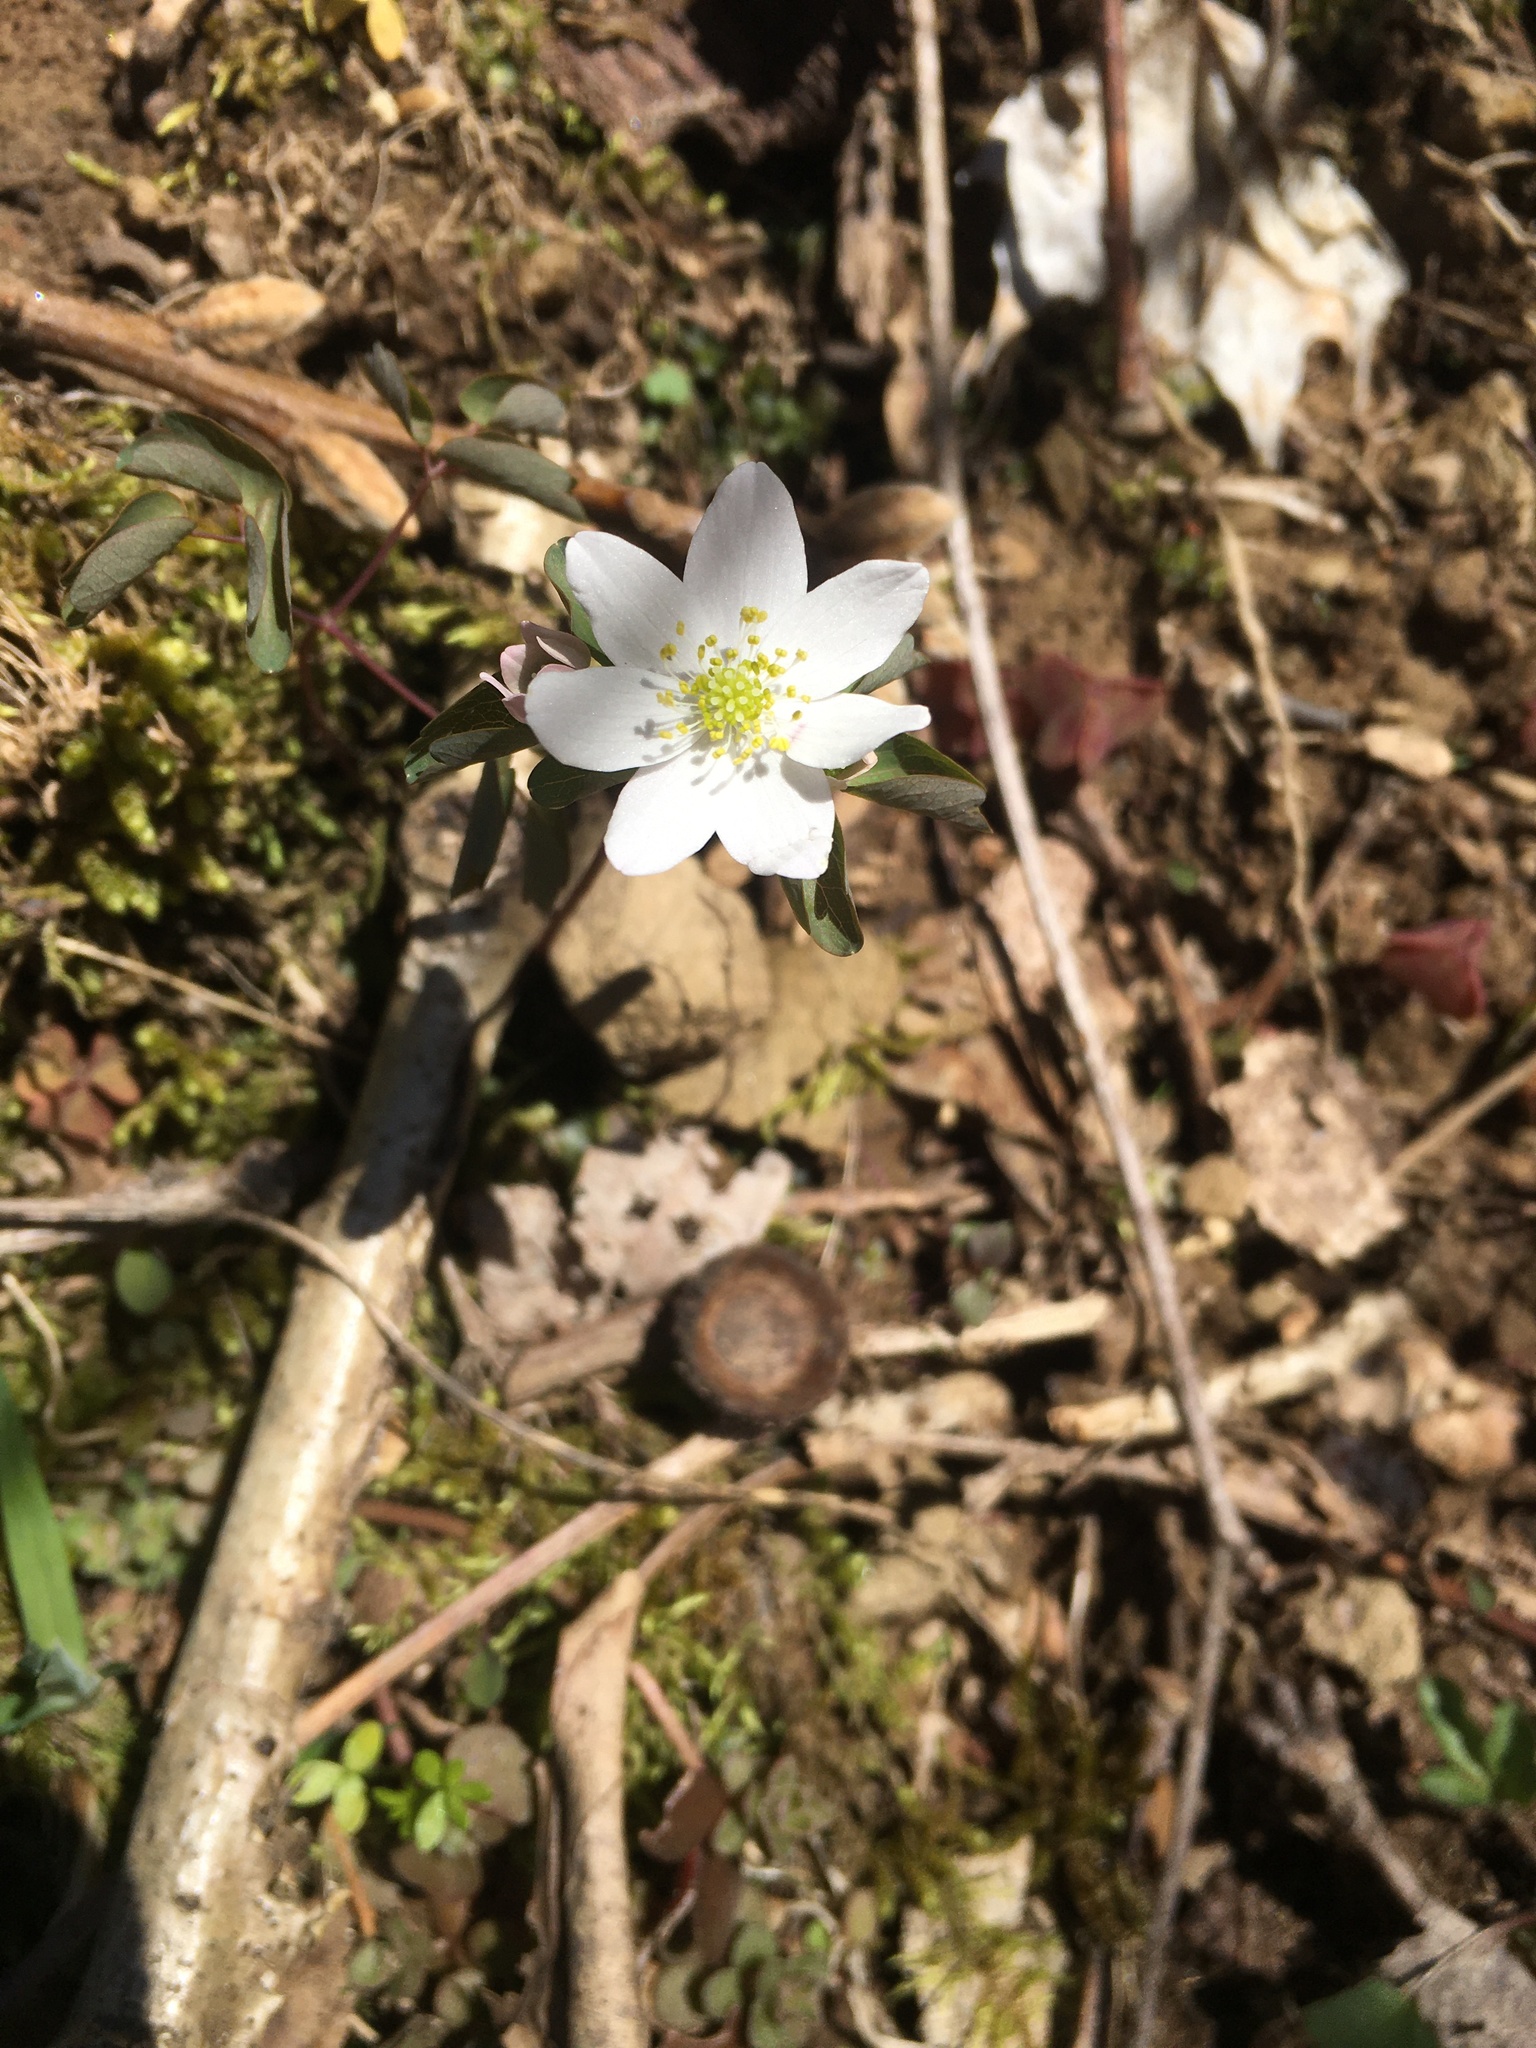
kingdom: Plantae
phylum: Tracheophyta
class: Magnoliopsida
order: Ranunculales
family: Ranunculaceae
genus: Thalictrum
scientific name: Thalictrum thalictroides
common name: Rue-anemone
